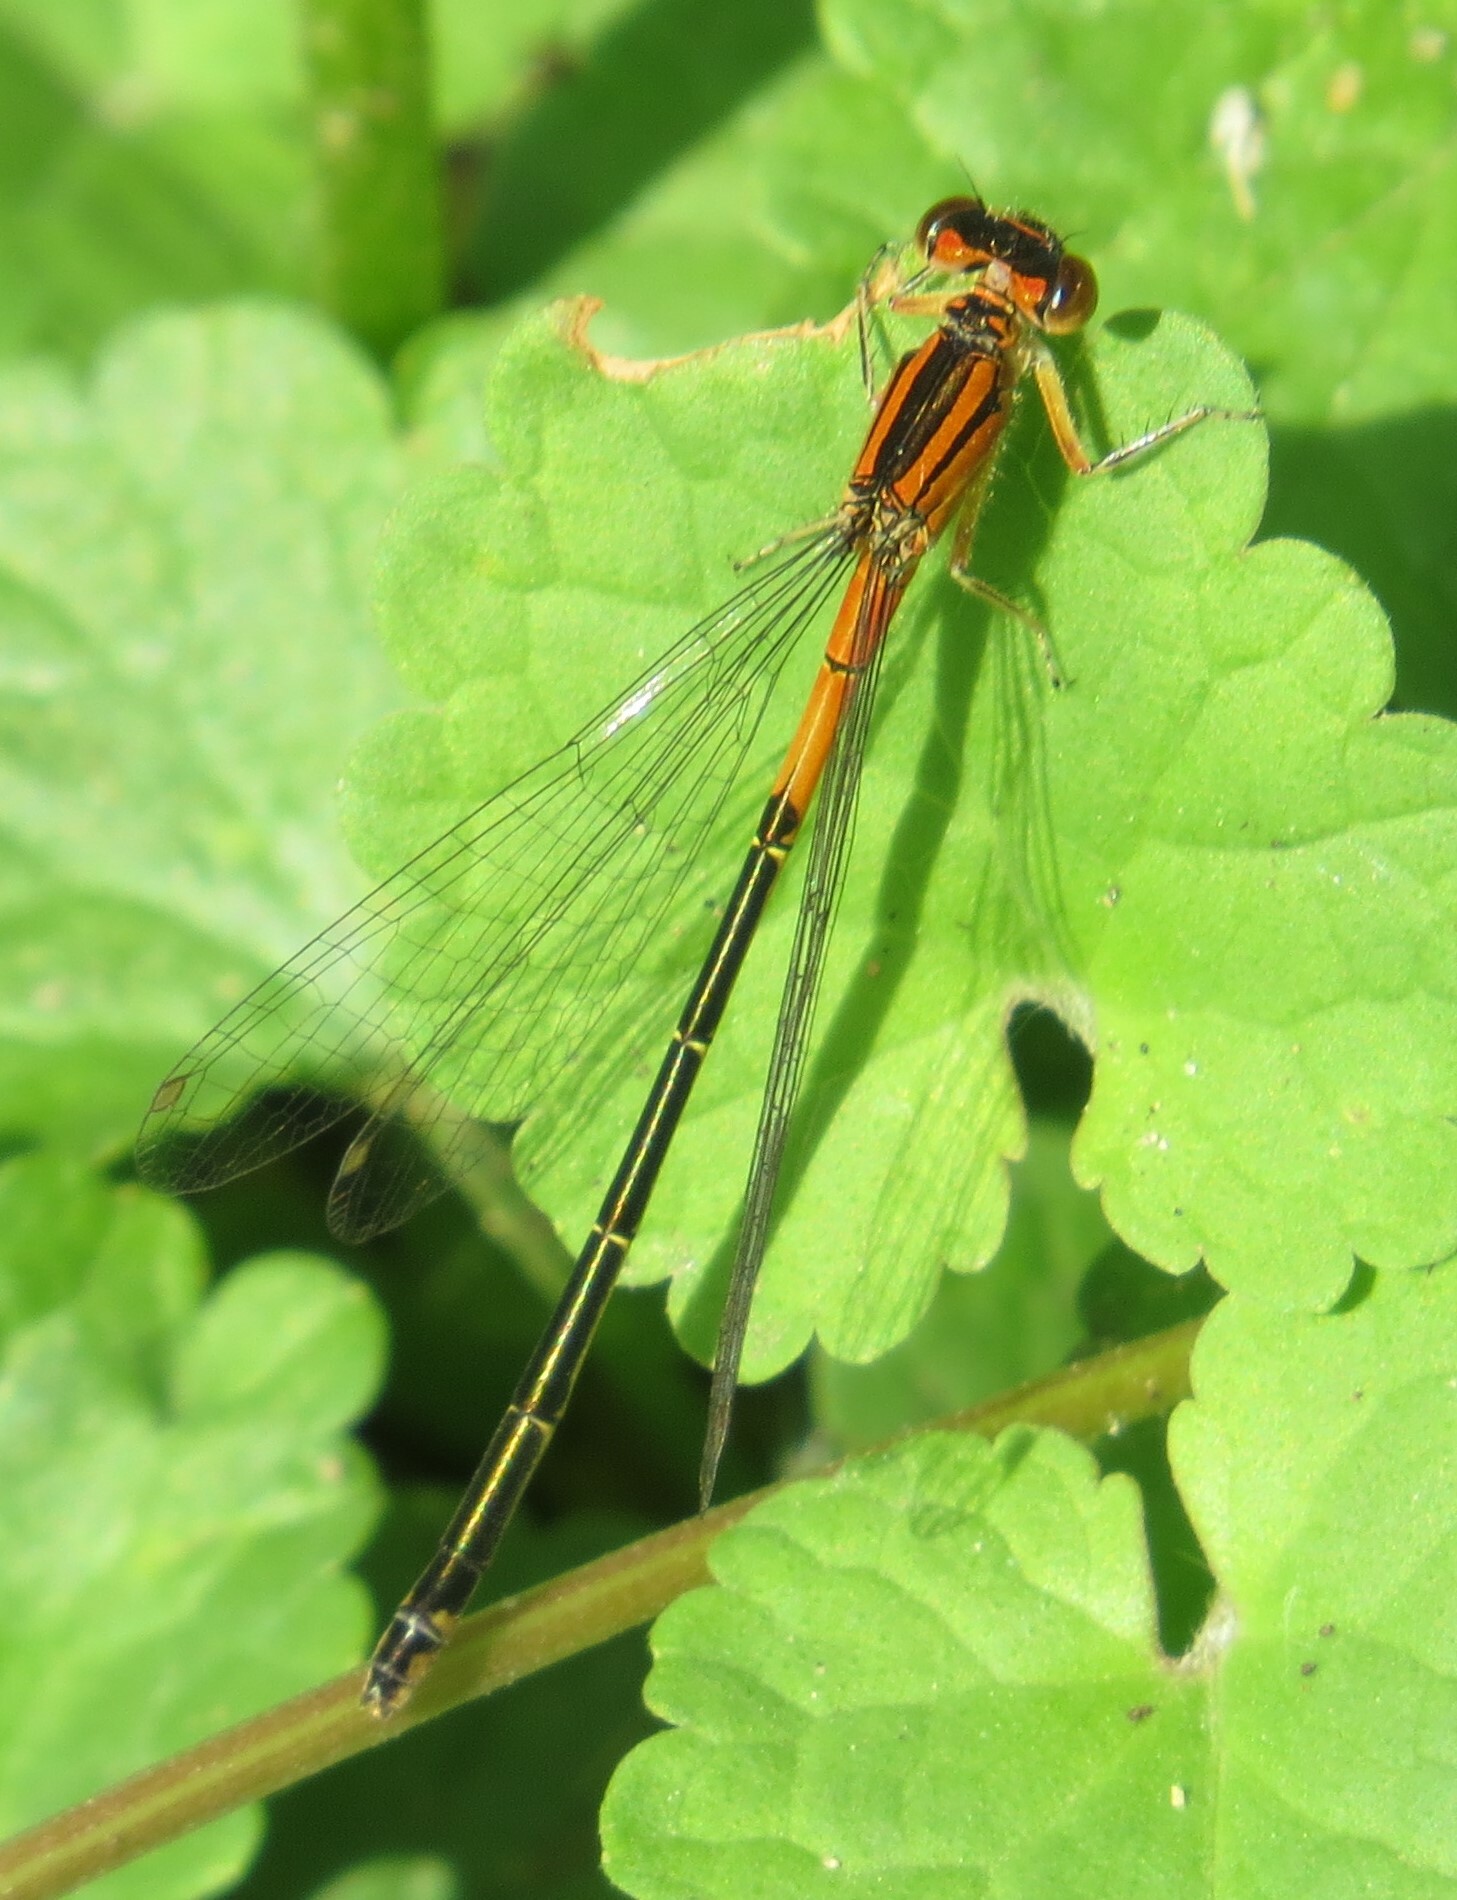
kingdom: Animalia
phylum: Arthropoda
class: Insecta
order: Odonata
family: Coenagrionidae
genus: Ischnura
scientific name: Ischnura verticalis
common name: Eastern forktail
